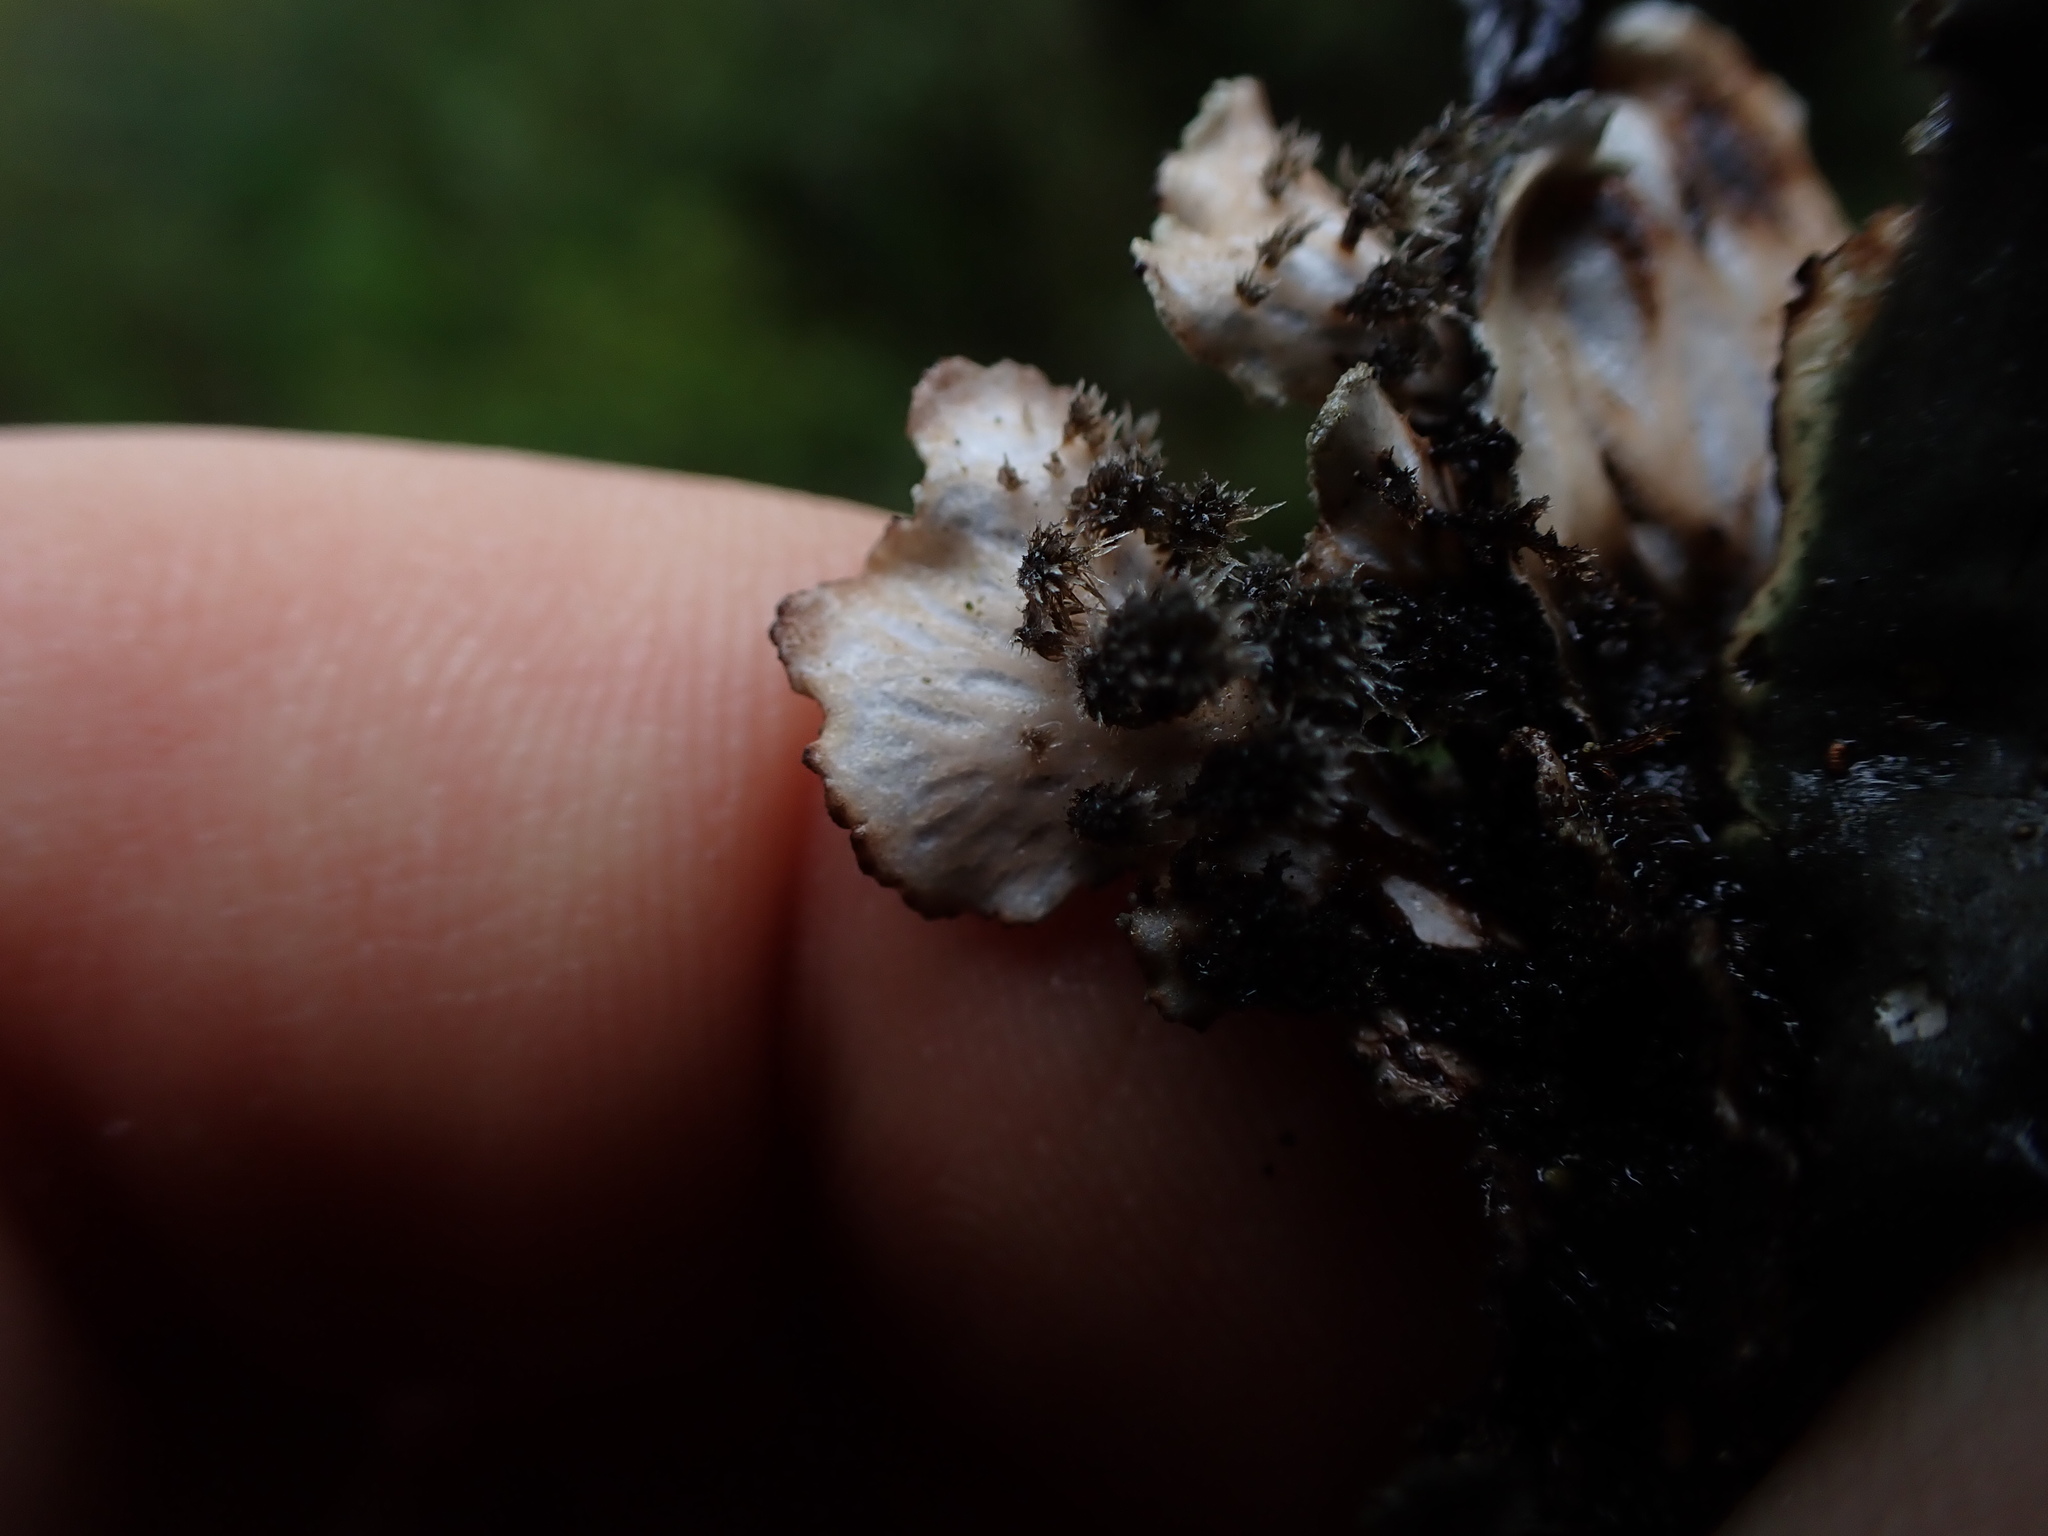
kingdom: Fungi
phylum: Ascomycota
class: Lecanoromycetes
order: Peltigerales
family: Peltigeraceae
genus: Peltigera
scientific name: Peltigera collina
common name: Gritty tree pelt lichen
